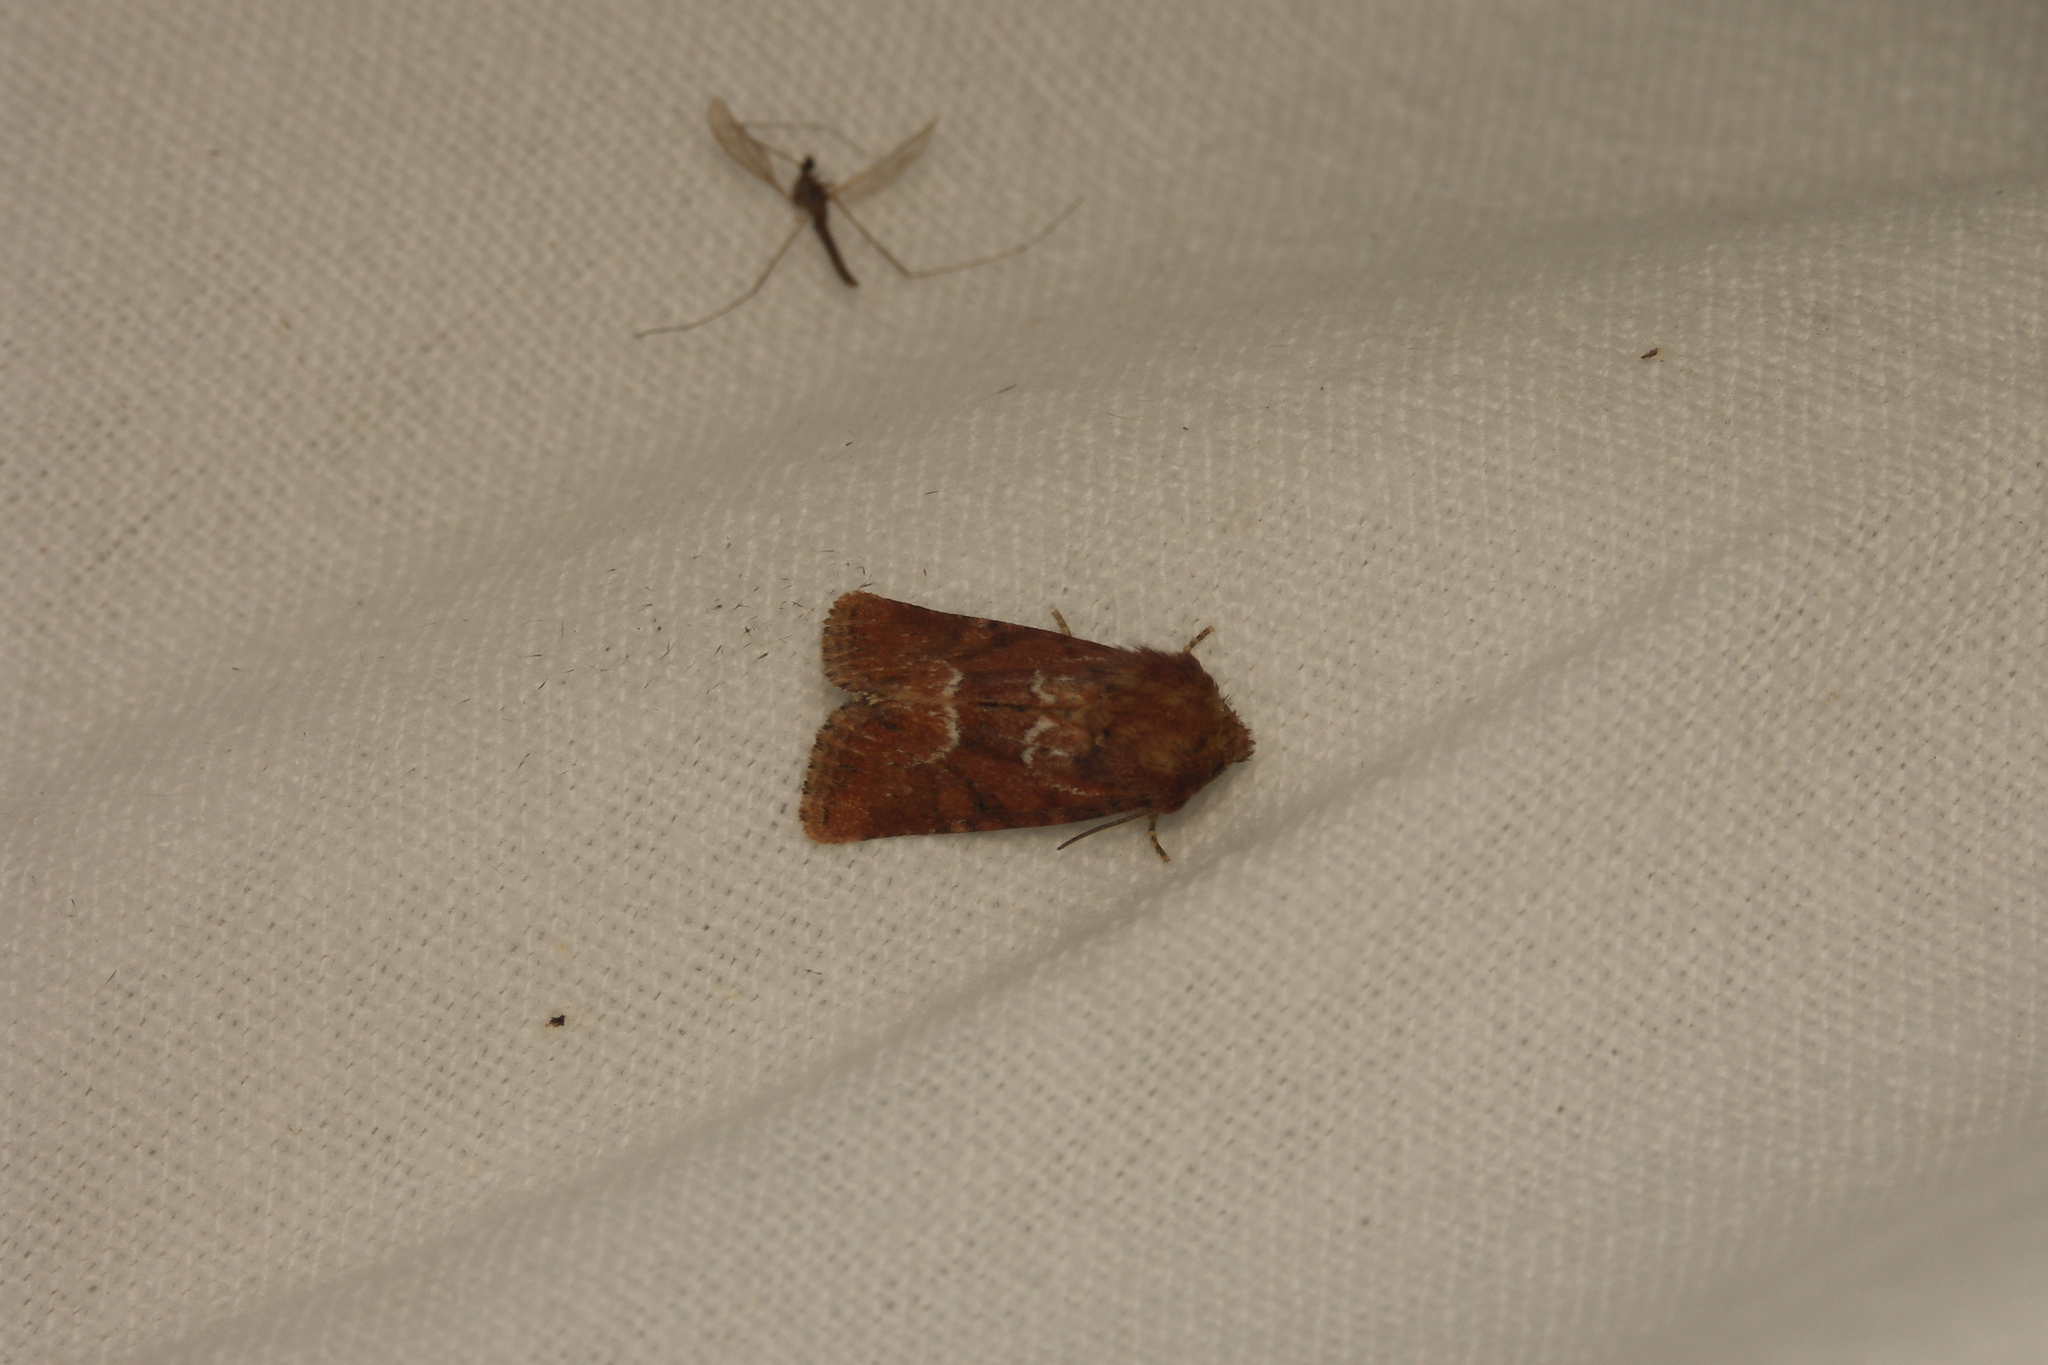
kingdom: Animalia
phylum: Arthropoda
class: Insecta
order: Lepidoptera
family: Noctuidae
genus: Oligia
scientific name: Oligia fasciuncula
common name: Middle-barred minor
